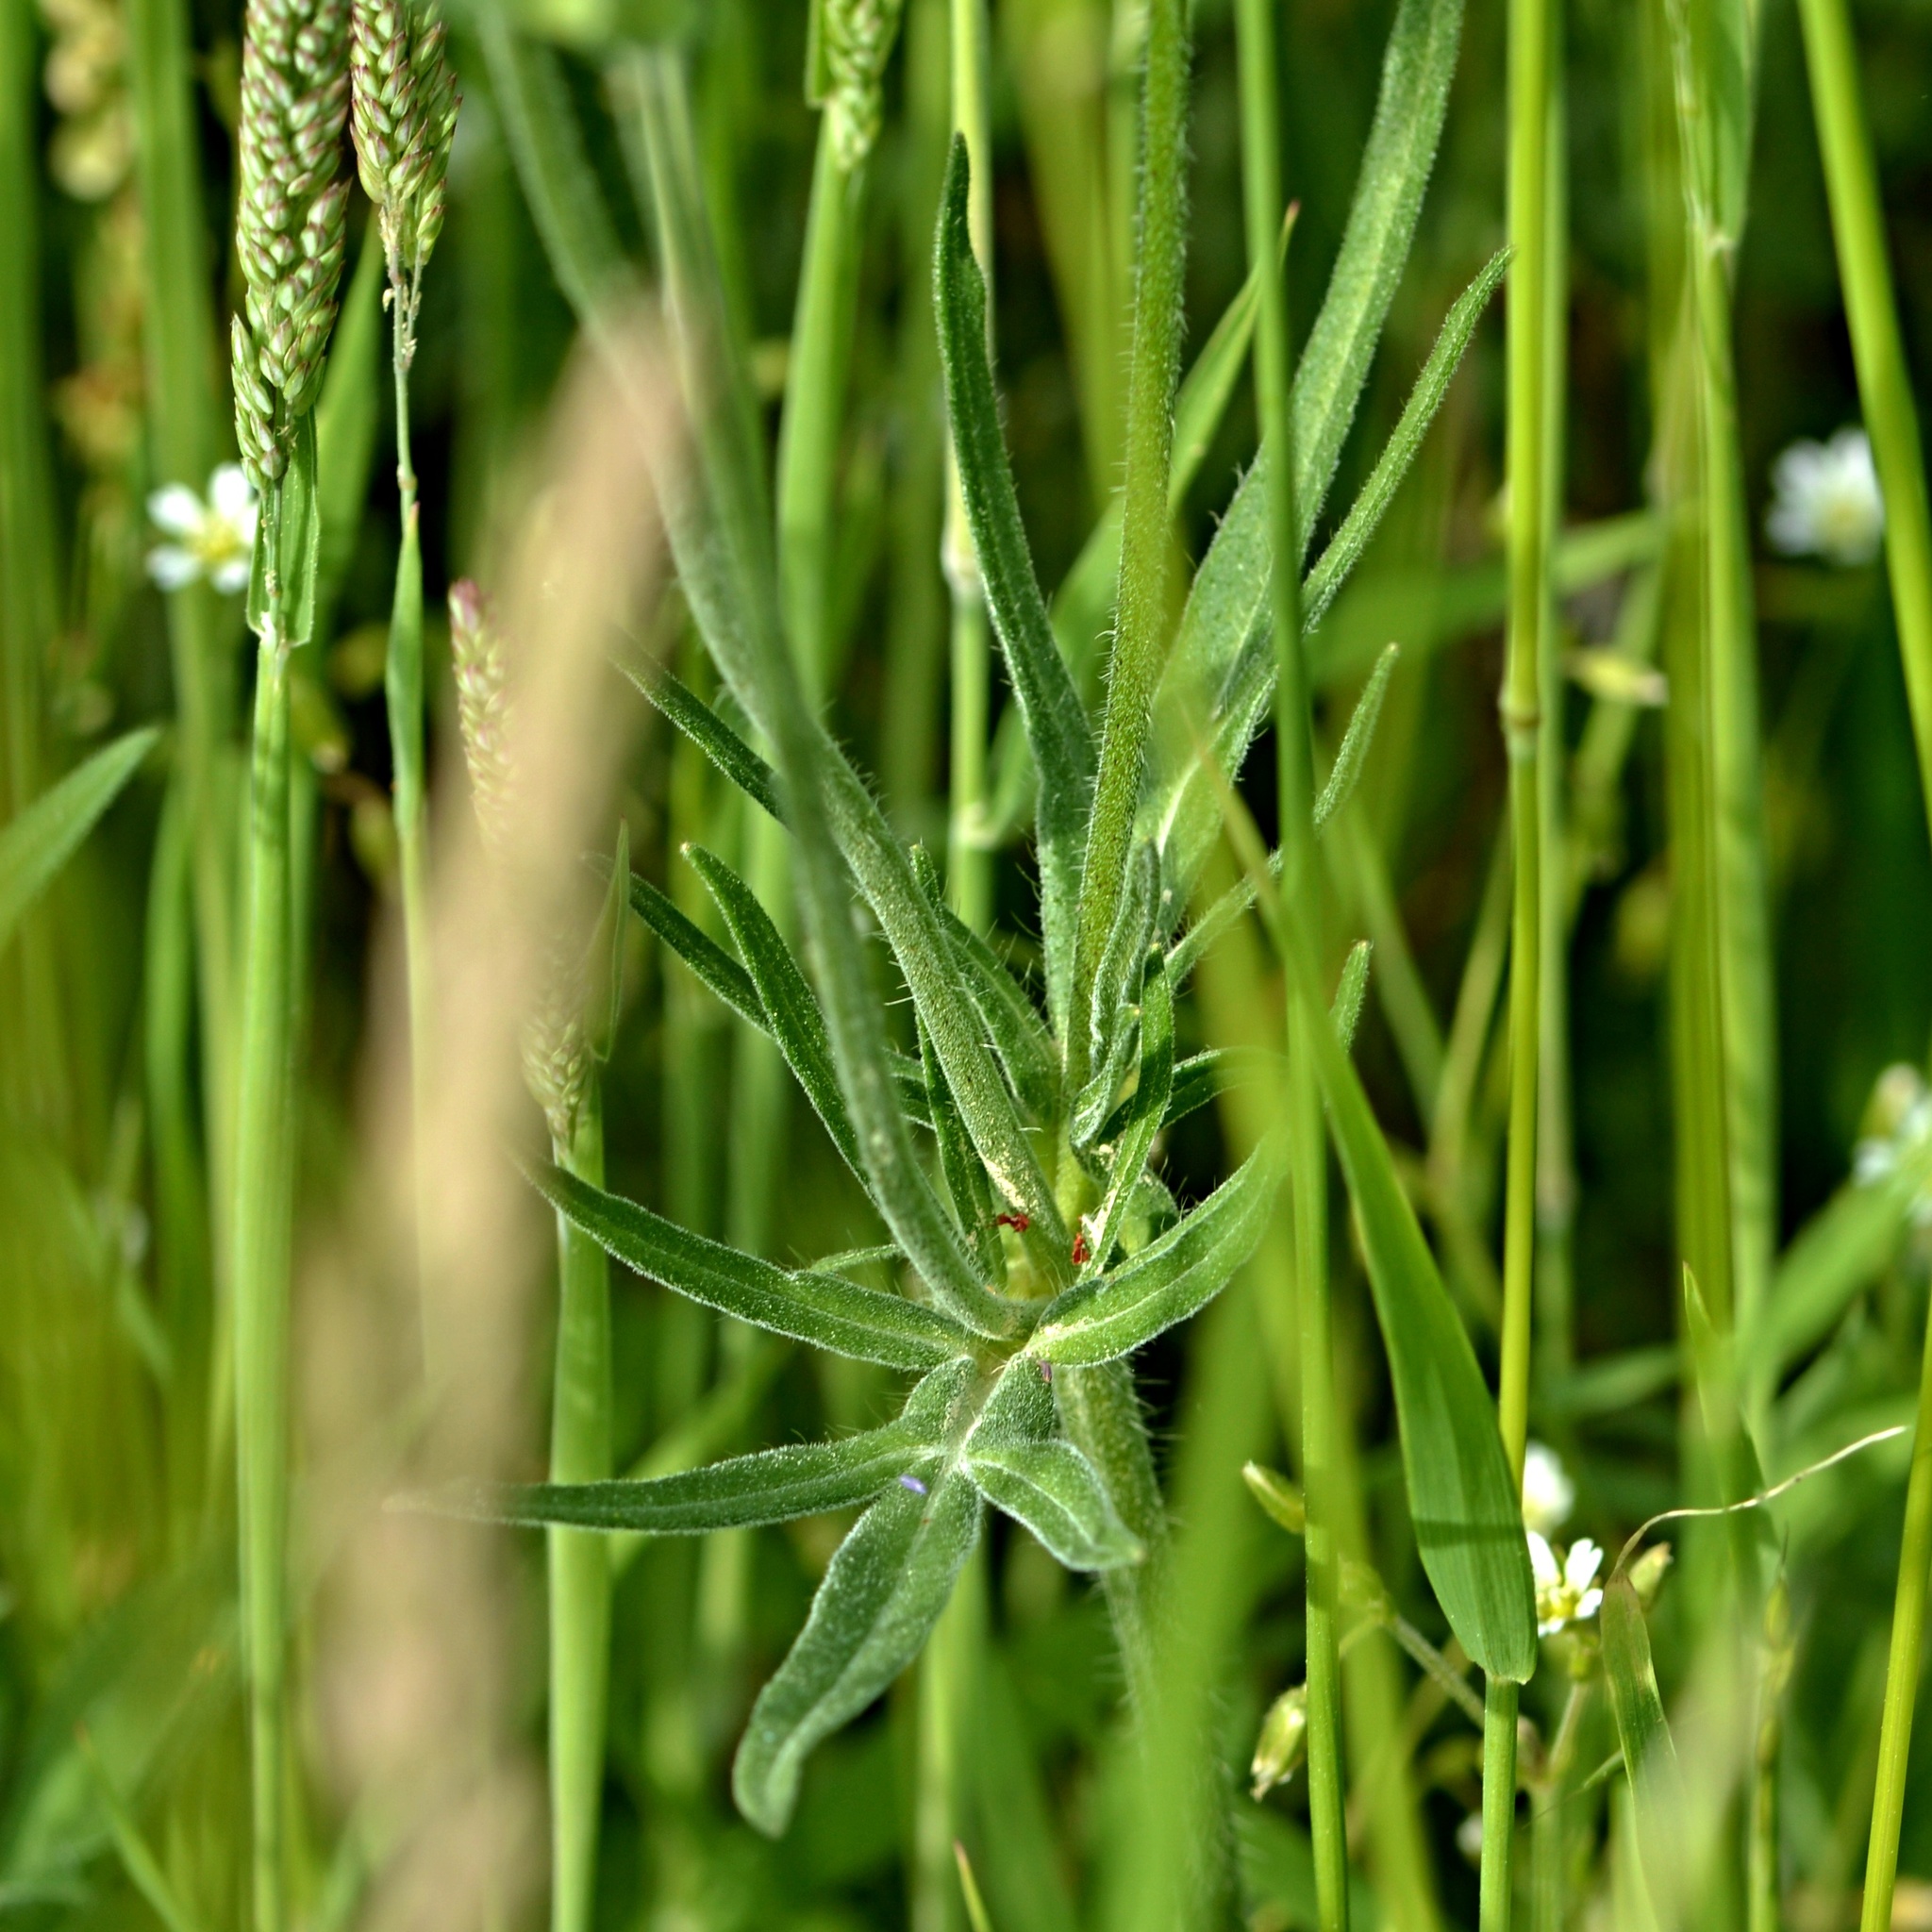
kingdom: Plantae
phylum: Tracheophyta
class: Magnoliopsida
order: Dipsacales
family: Caprifoliaceae
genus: Knautia
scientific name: Knautia arvensis
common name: Field scabiosa
